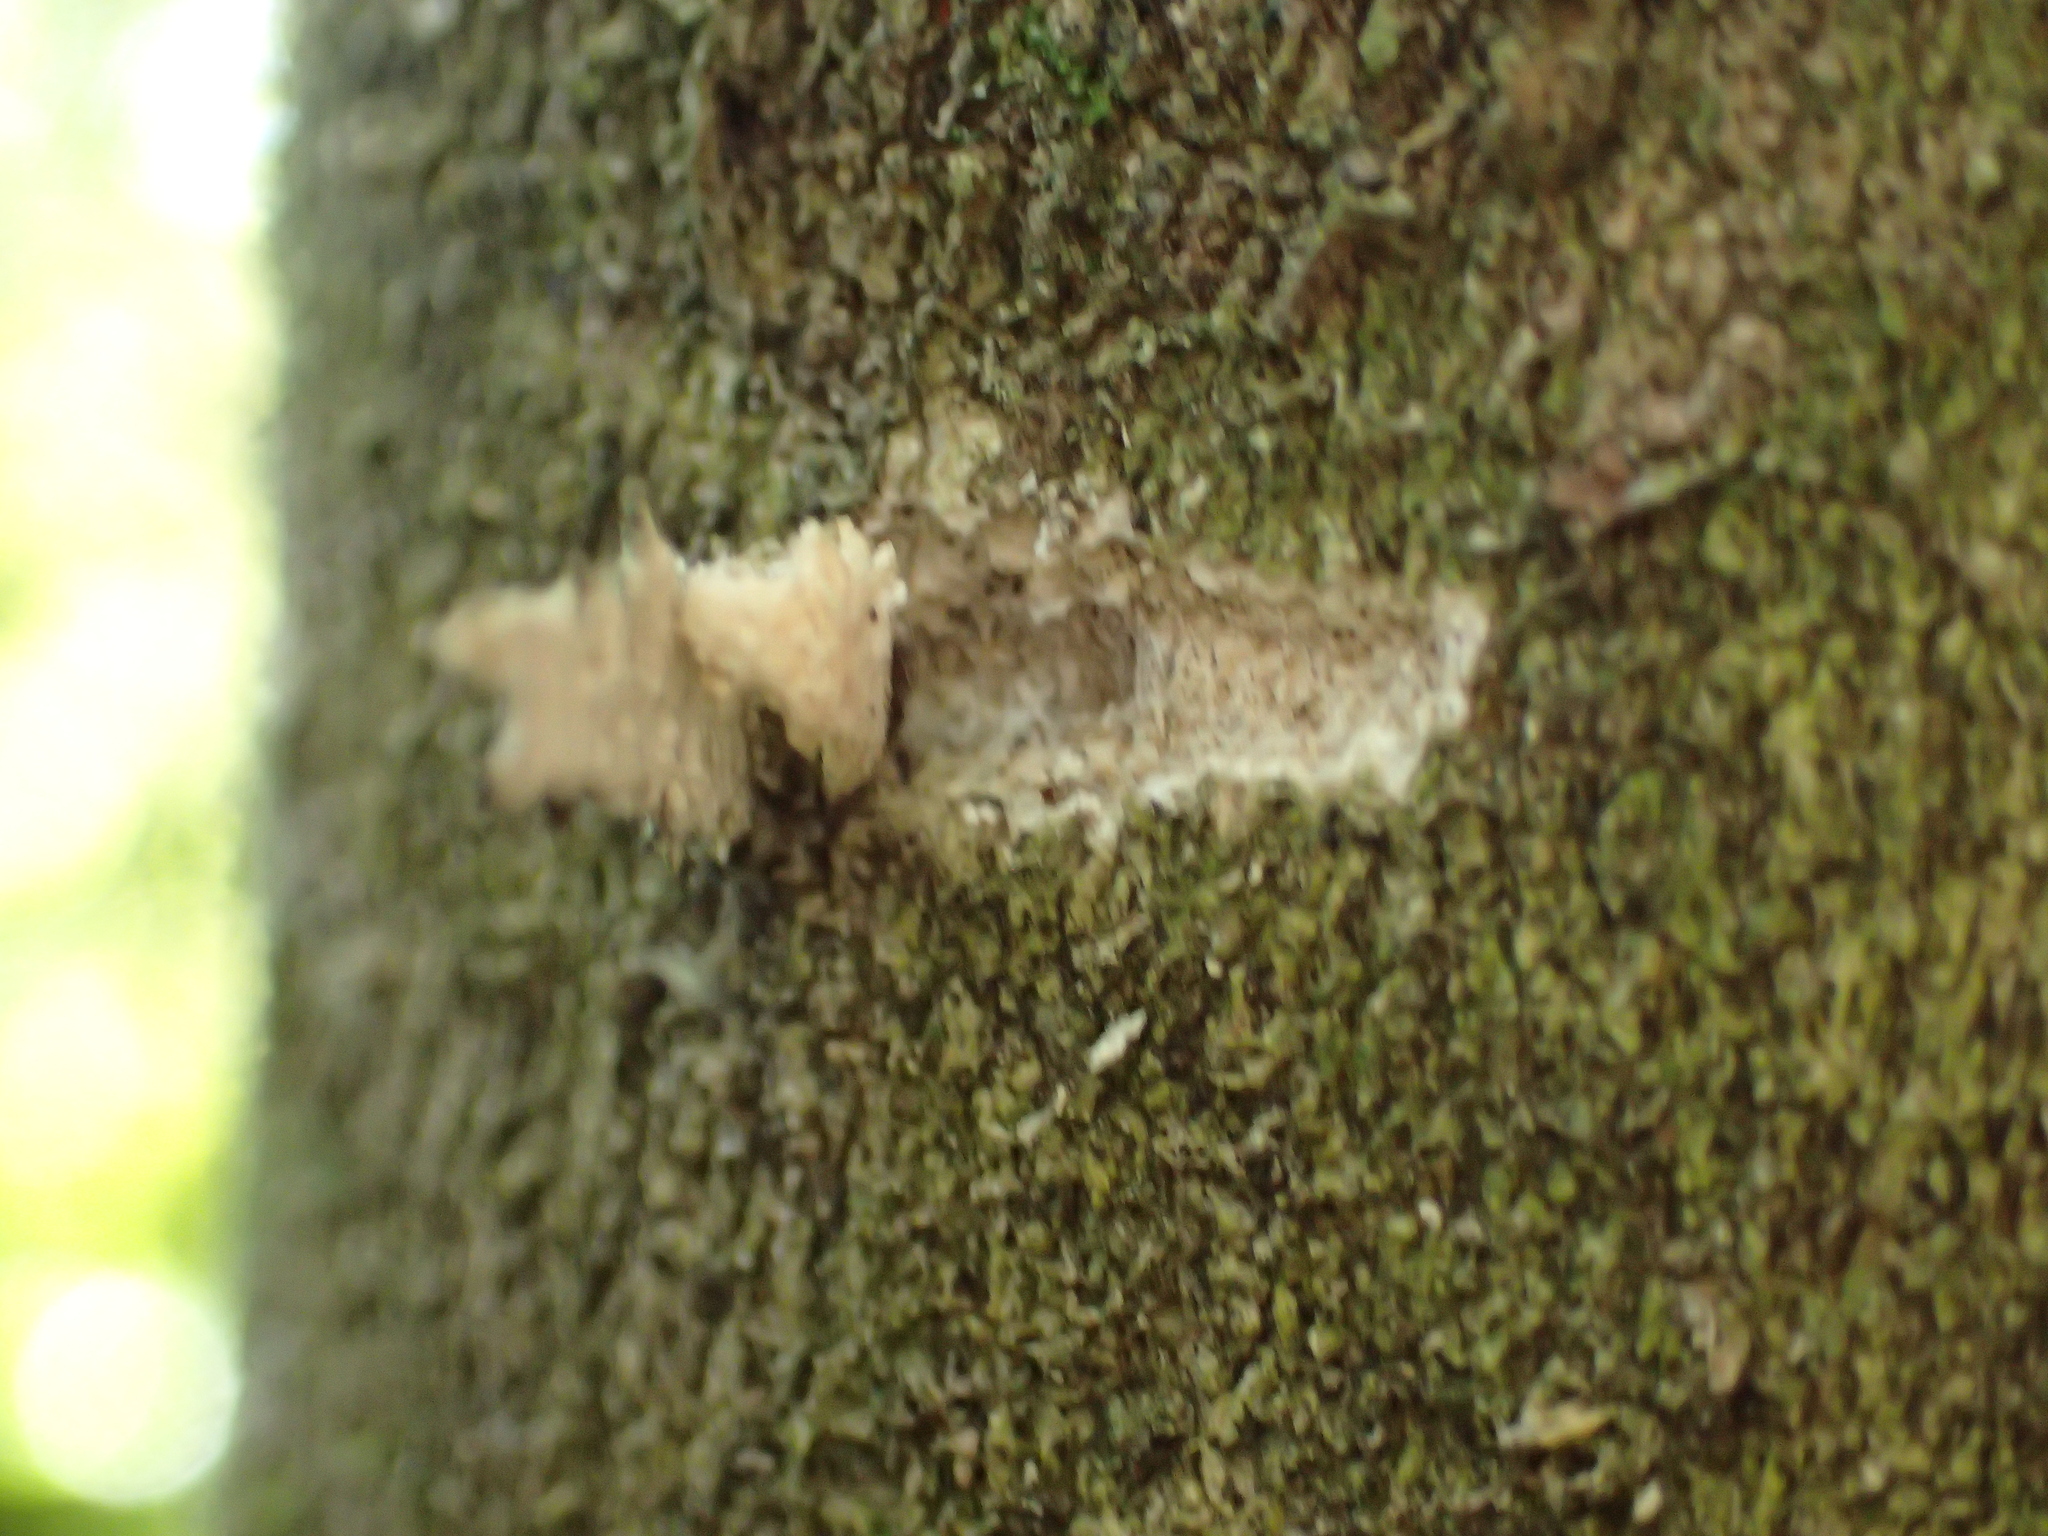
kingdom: Animalia
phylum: Chordata
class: Aves
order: Psittaciformes
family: Psittacidae
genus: Nestor
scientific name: Nestor meridionalis
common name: New zealand kaka
